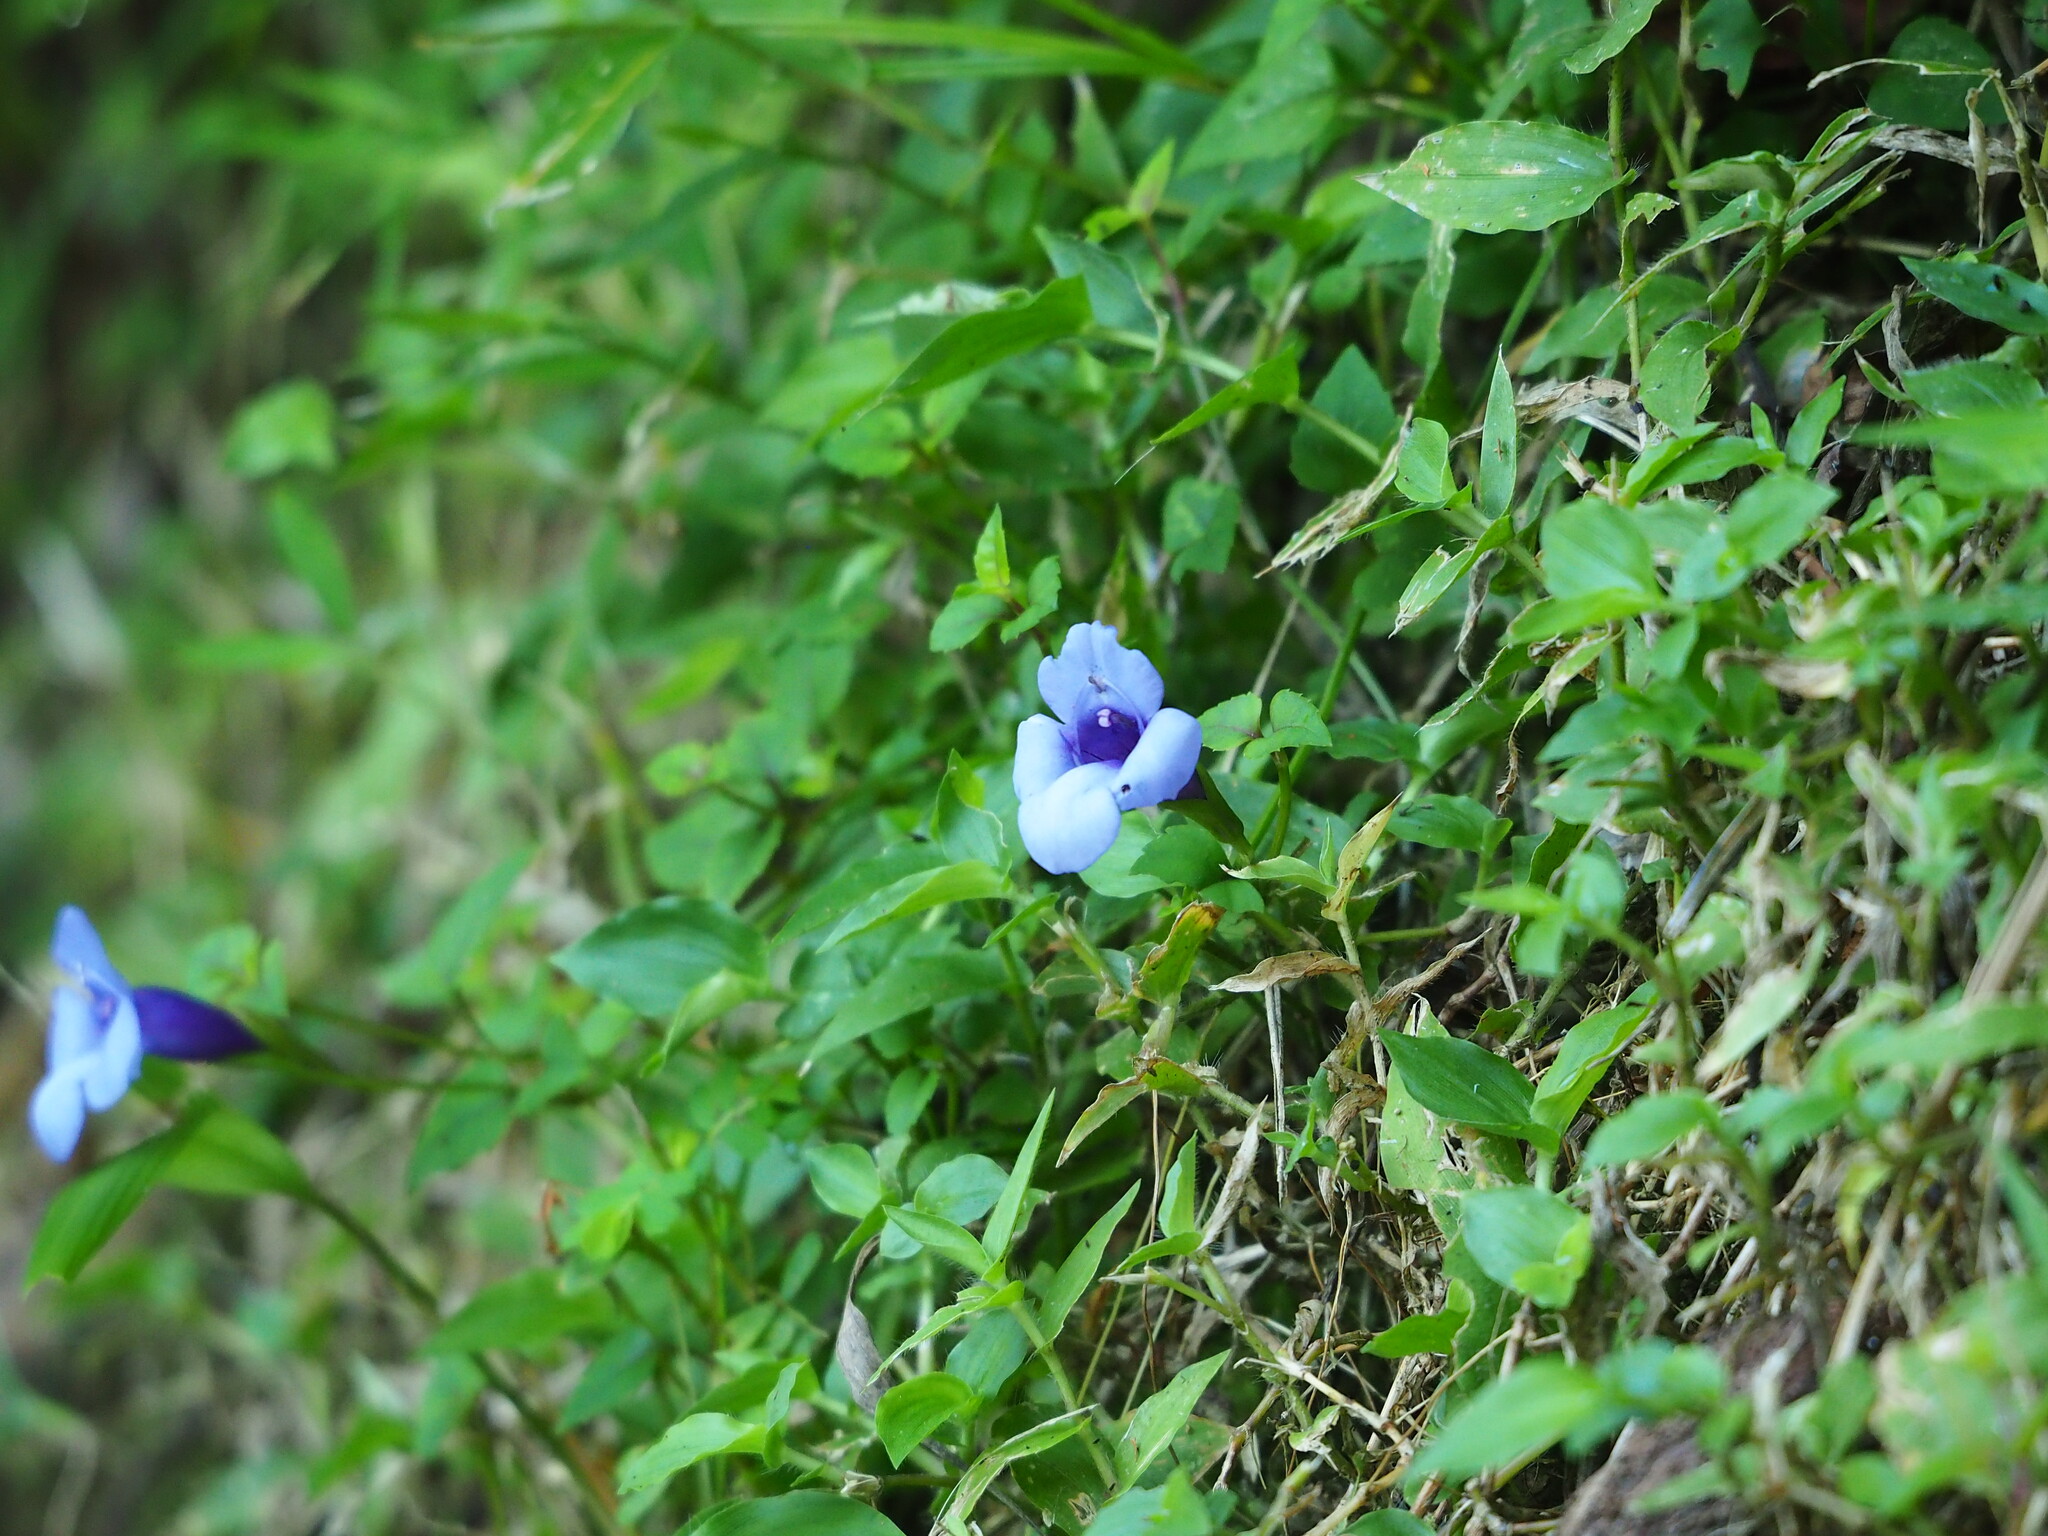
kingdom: Plantae
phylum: Tracheophyta
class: Magnoliopsida
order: Lamiales
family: Linderniaceae
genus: Torenia
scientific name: Torenia concolor
